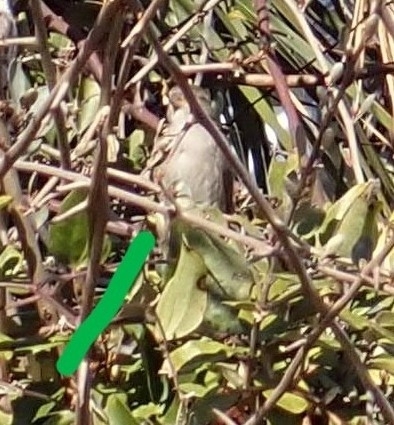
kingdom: Animalia
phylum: Chordata
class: Aves
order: Passeriformes
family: Passeridae
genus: Passer
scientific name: Passer domesticus
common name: House sparrow
